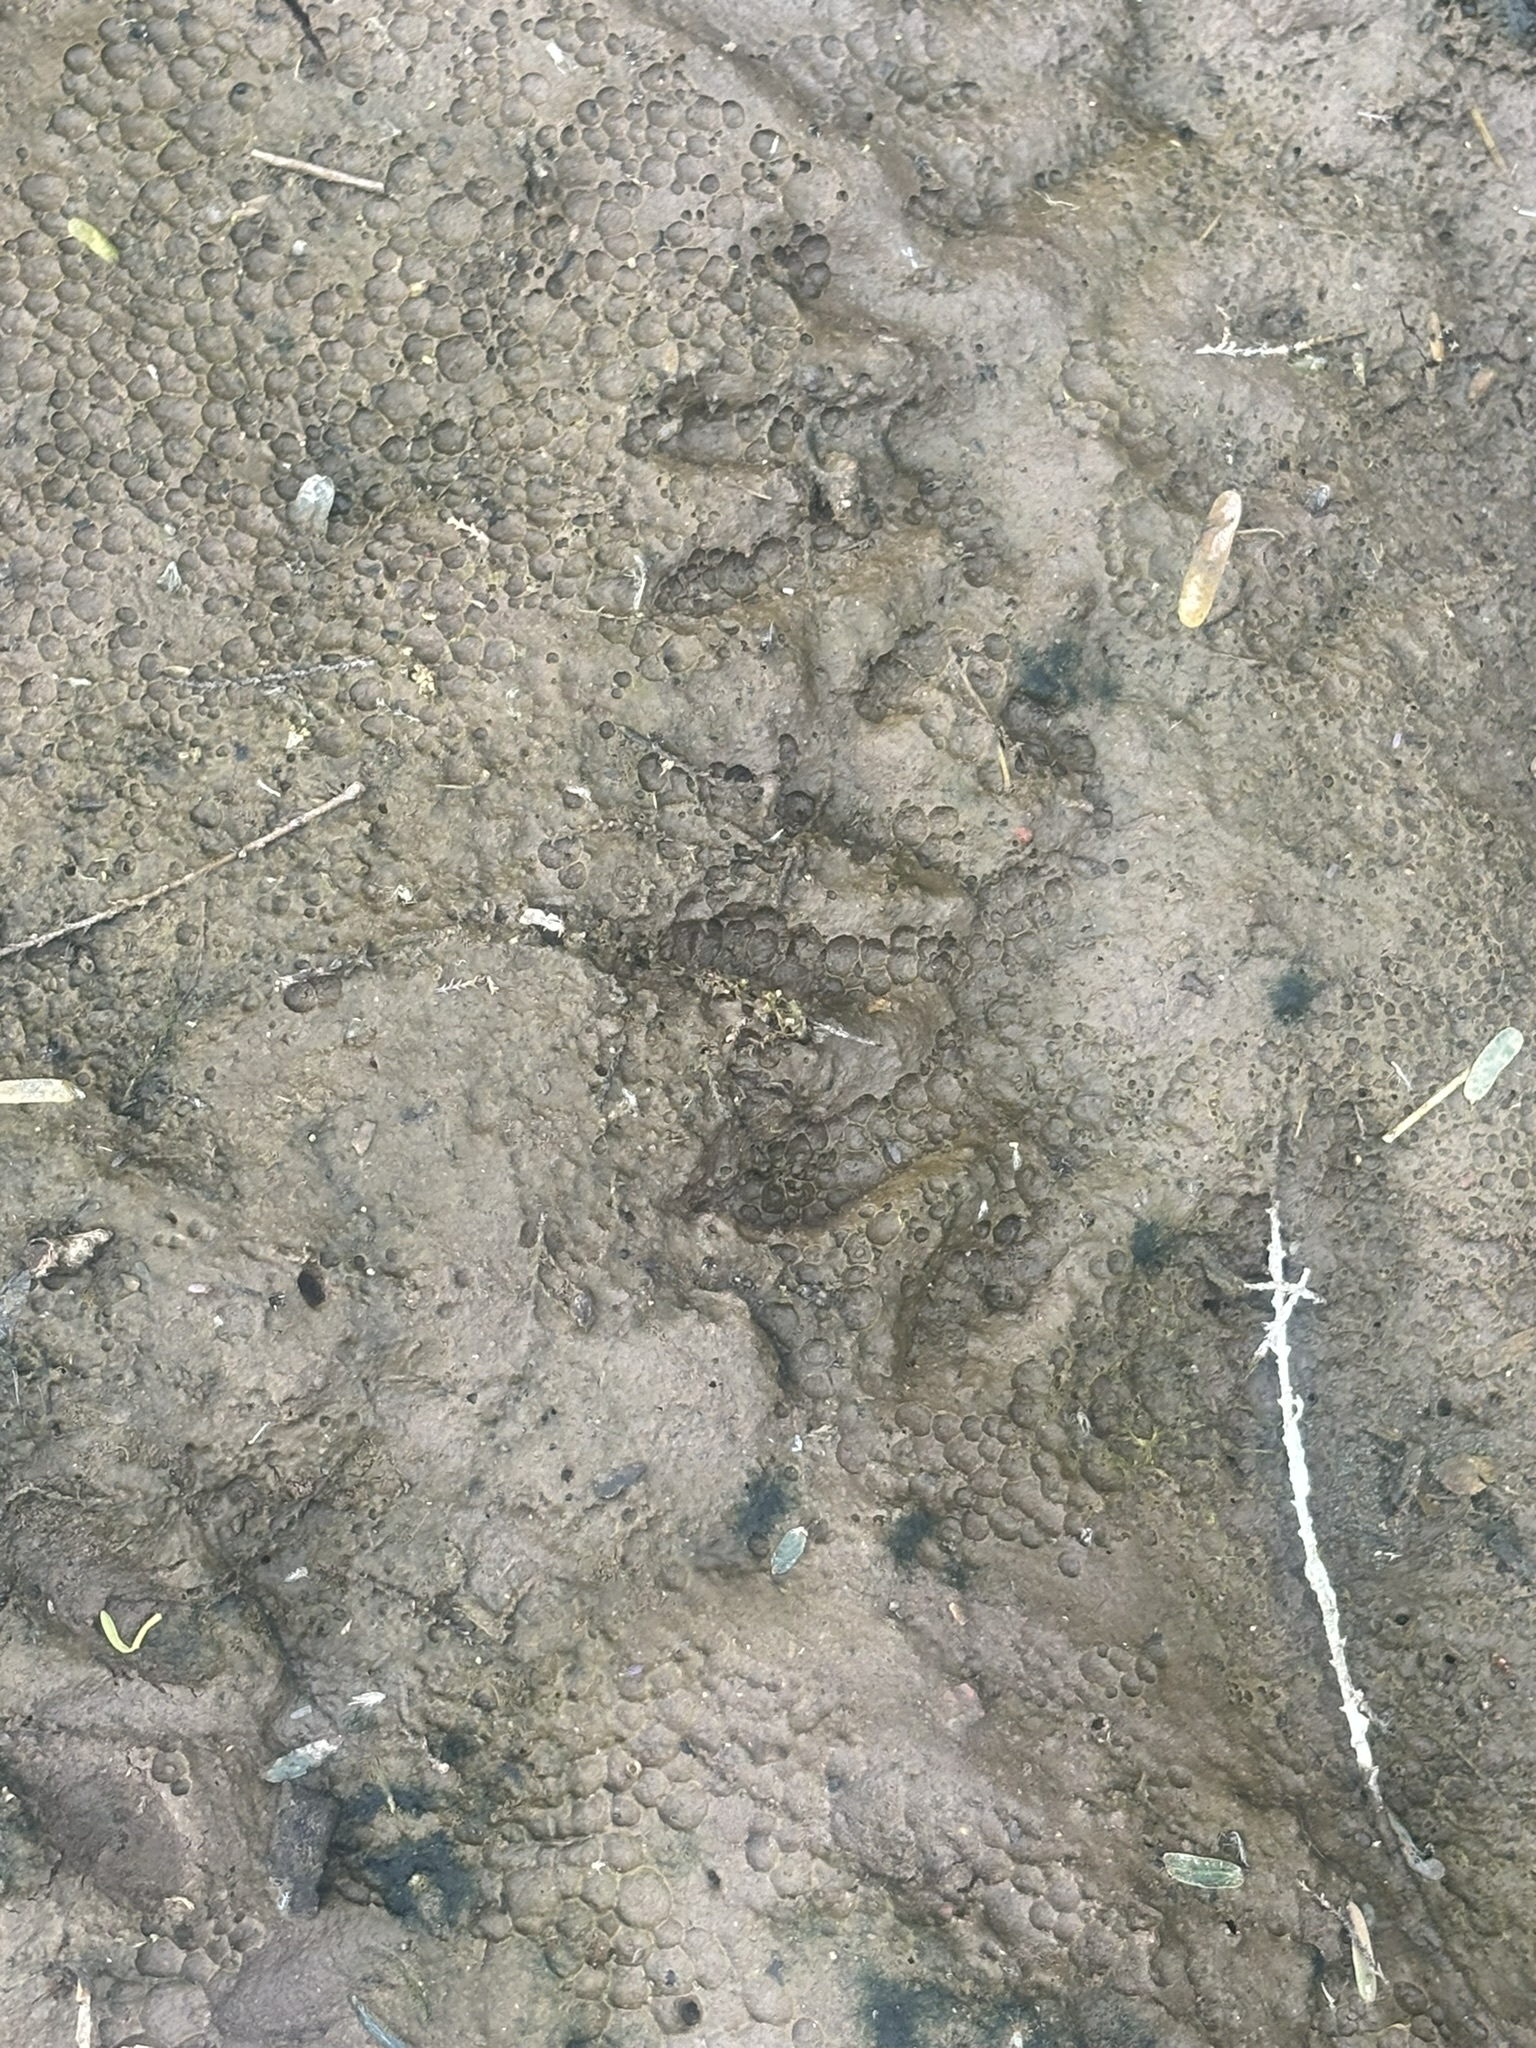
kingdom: Animalia
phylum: Chordata
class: Mammalia
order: Carnivora
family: Procyonidae
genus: Procyon
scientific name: Procyon lotor
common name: Raccoon
